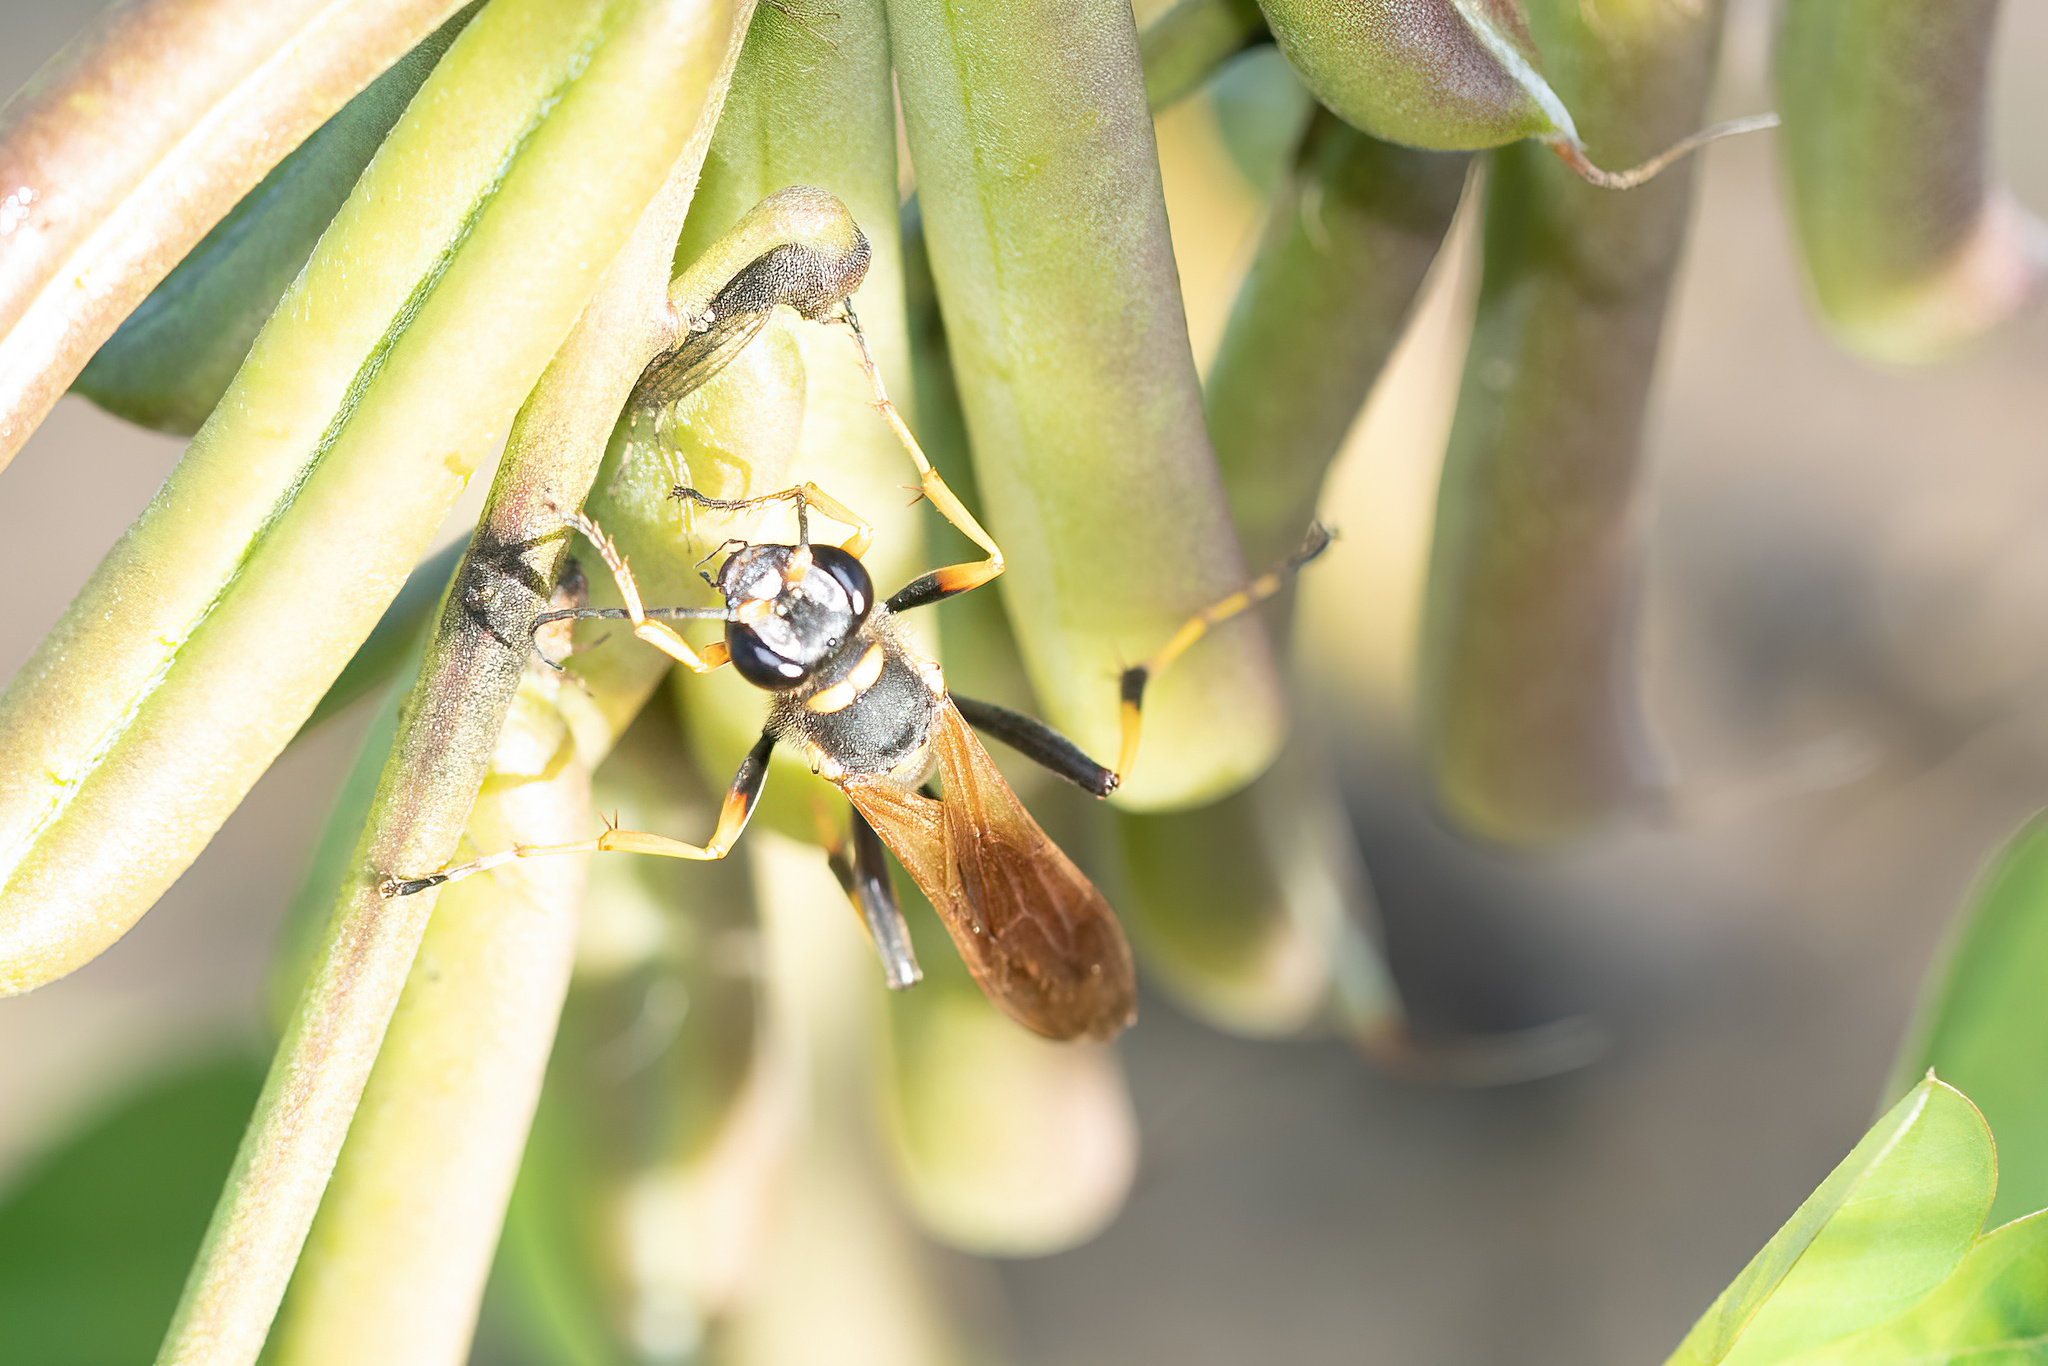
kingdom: Animalia
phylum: Arthropoda
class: Insecta
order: Hymenoptera
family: Sphecidae
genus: Sceliphron
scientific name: Sceliphron caementarium
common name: Mud dauber
